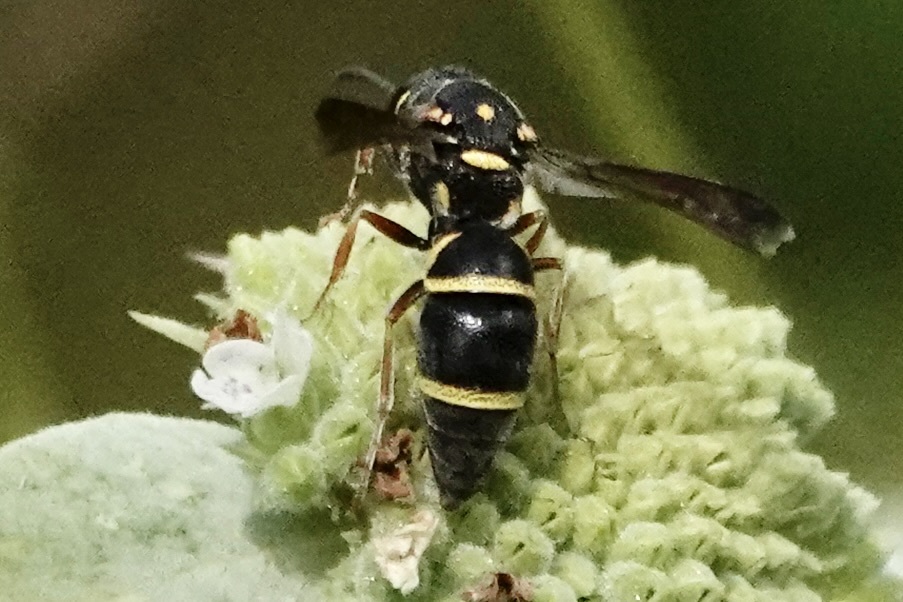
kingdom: Animalia
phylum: Arthropoda
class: Insecta
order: Hymenoptera
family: Eumenidae
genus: Parancistrocerus
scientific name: Parancistrocerus fulvipes
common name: Potter wasp
